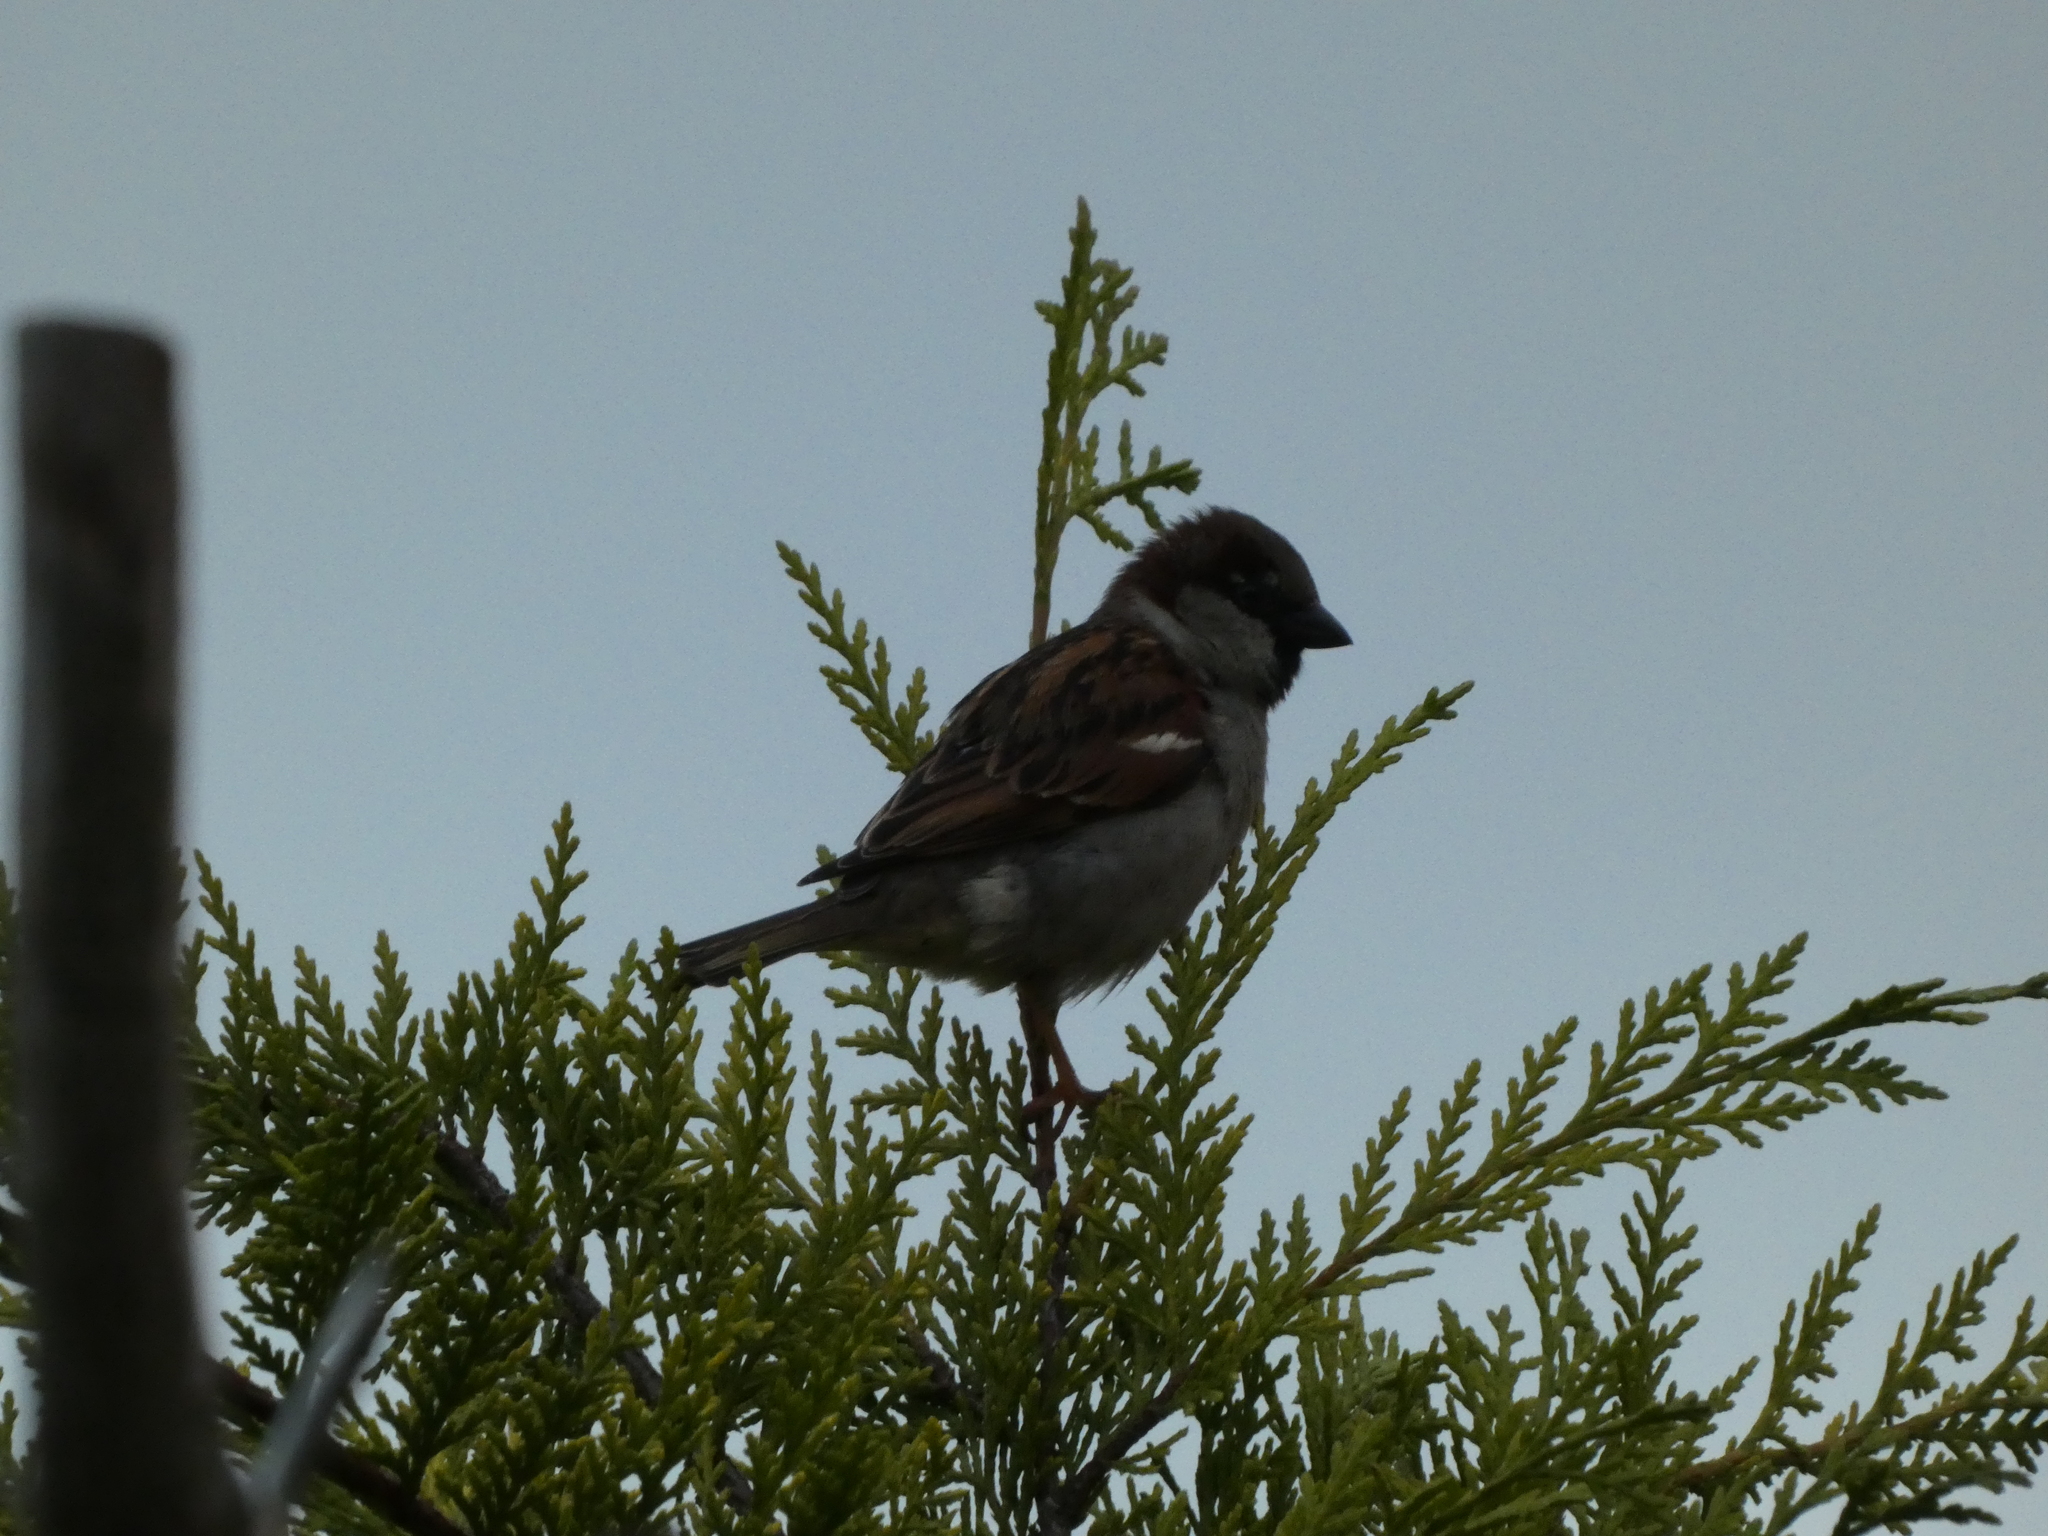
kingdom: Animalia
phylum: Chordata
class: Aves
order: Passeriformes
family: Passeridae
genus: Passer
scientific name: Passer domesticus
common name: House sparrow
